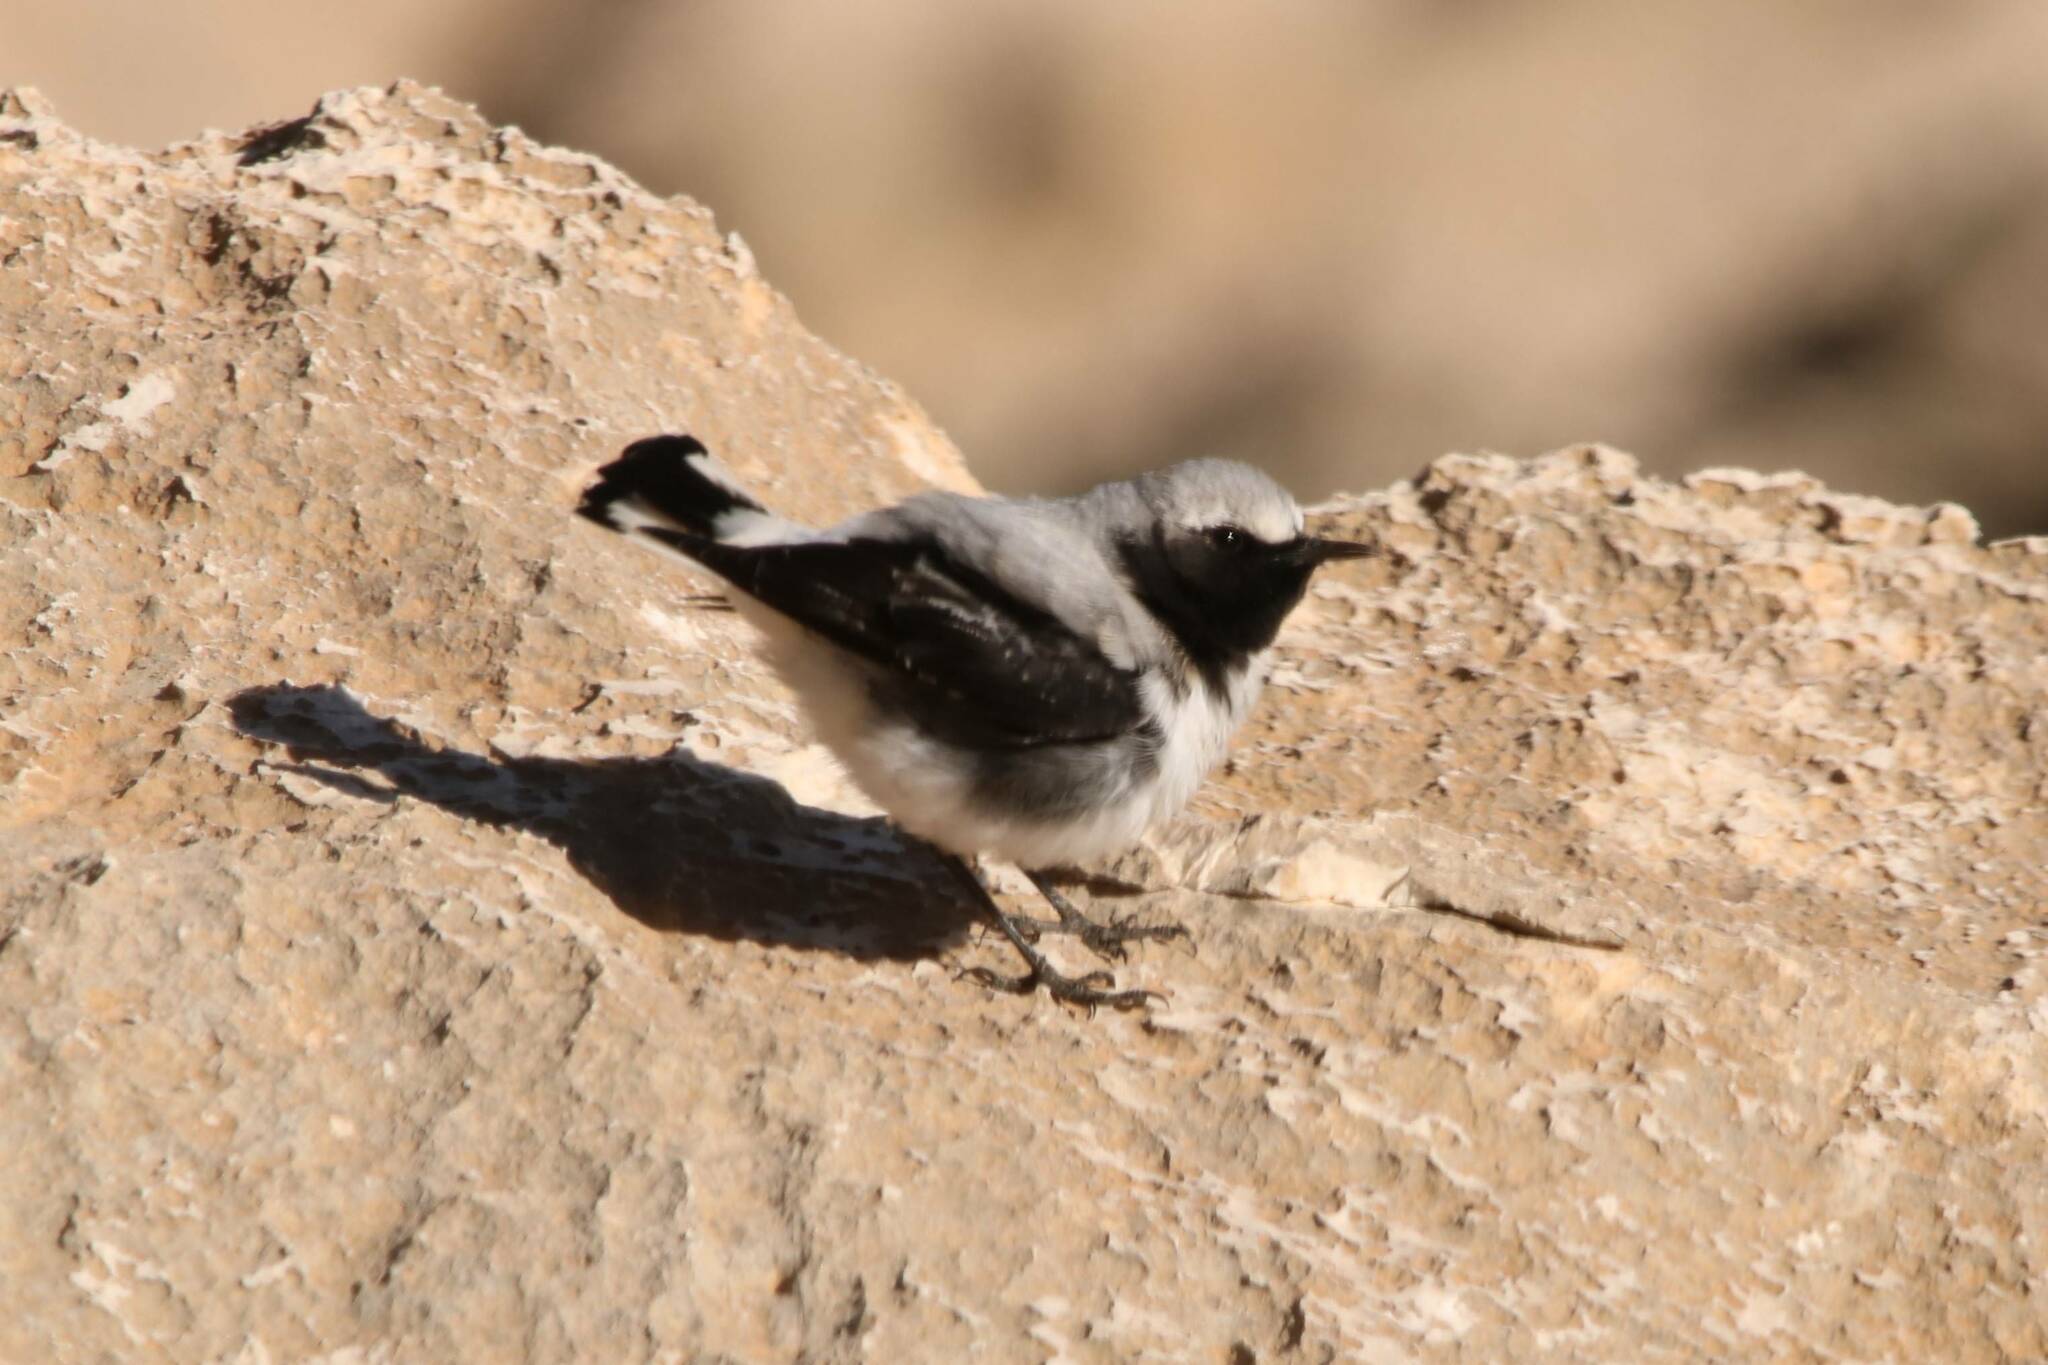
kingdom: Animalia
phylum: Chordata
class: Aves
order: Passeriformes
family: Muscicapidae
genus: Oenanthe
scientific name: Oenanthe oenanthe
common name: Northern wheatear
